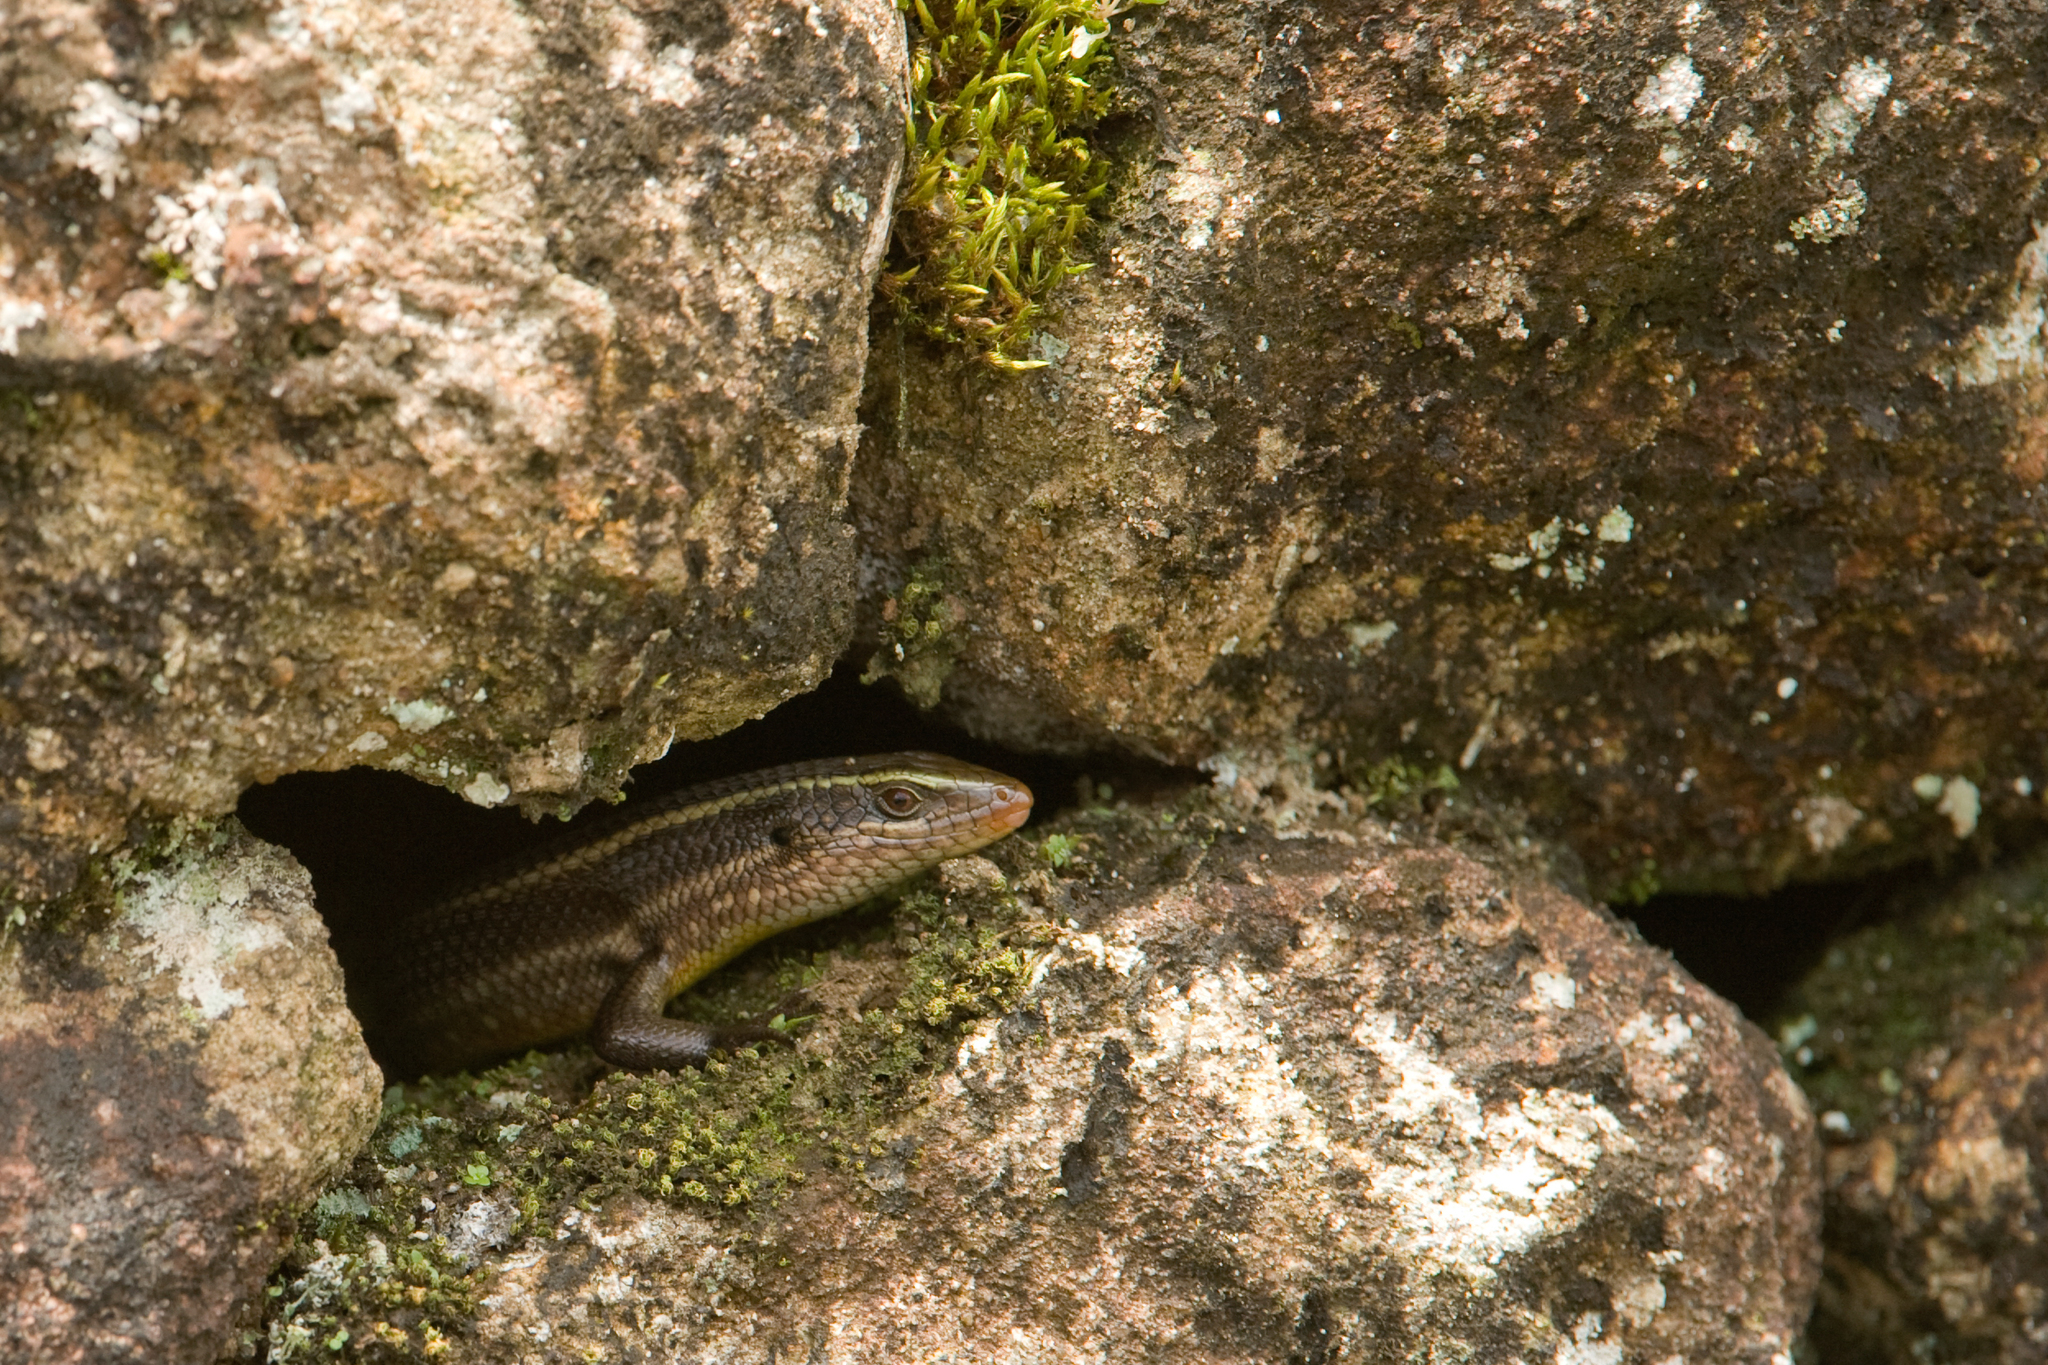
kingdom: Animalia
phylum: Chordata
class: Squamata
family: Scincidae
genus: Eutropis
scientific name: Eutropis carinata
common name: Keeled indian mabuya
